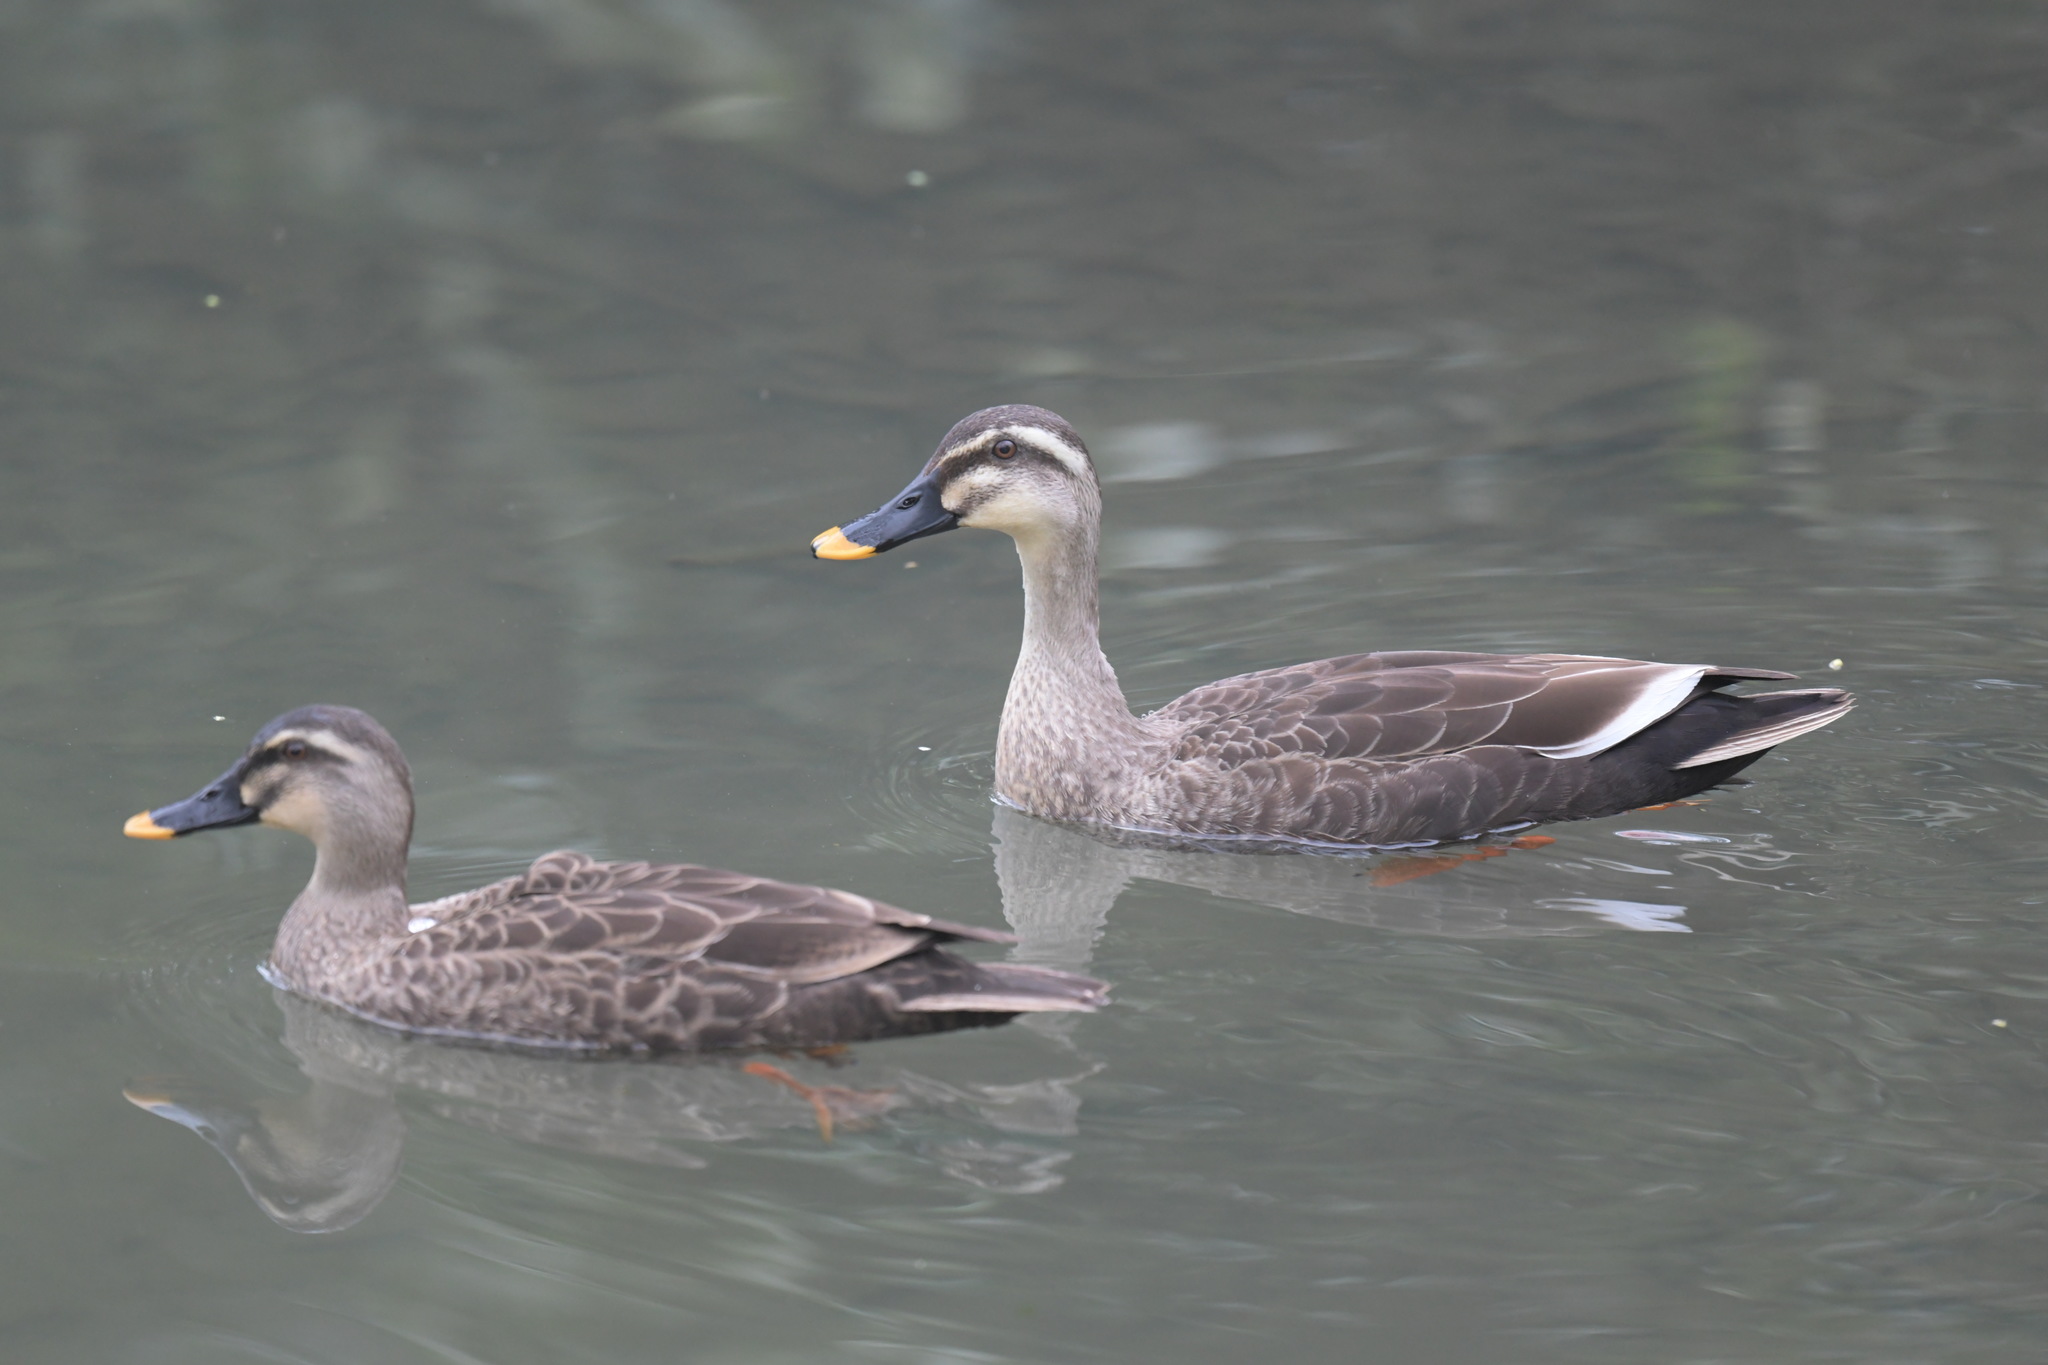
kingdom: Animalia
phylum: Chordata
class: Aves
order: Anseriformes
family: Anatidae
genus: Anas
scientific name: Anas zonorhyncha
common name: Eastern spot-billed duck
